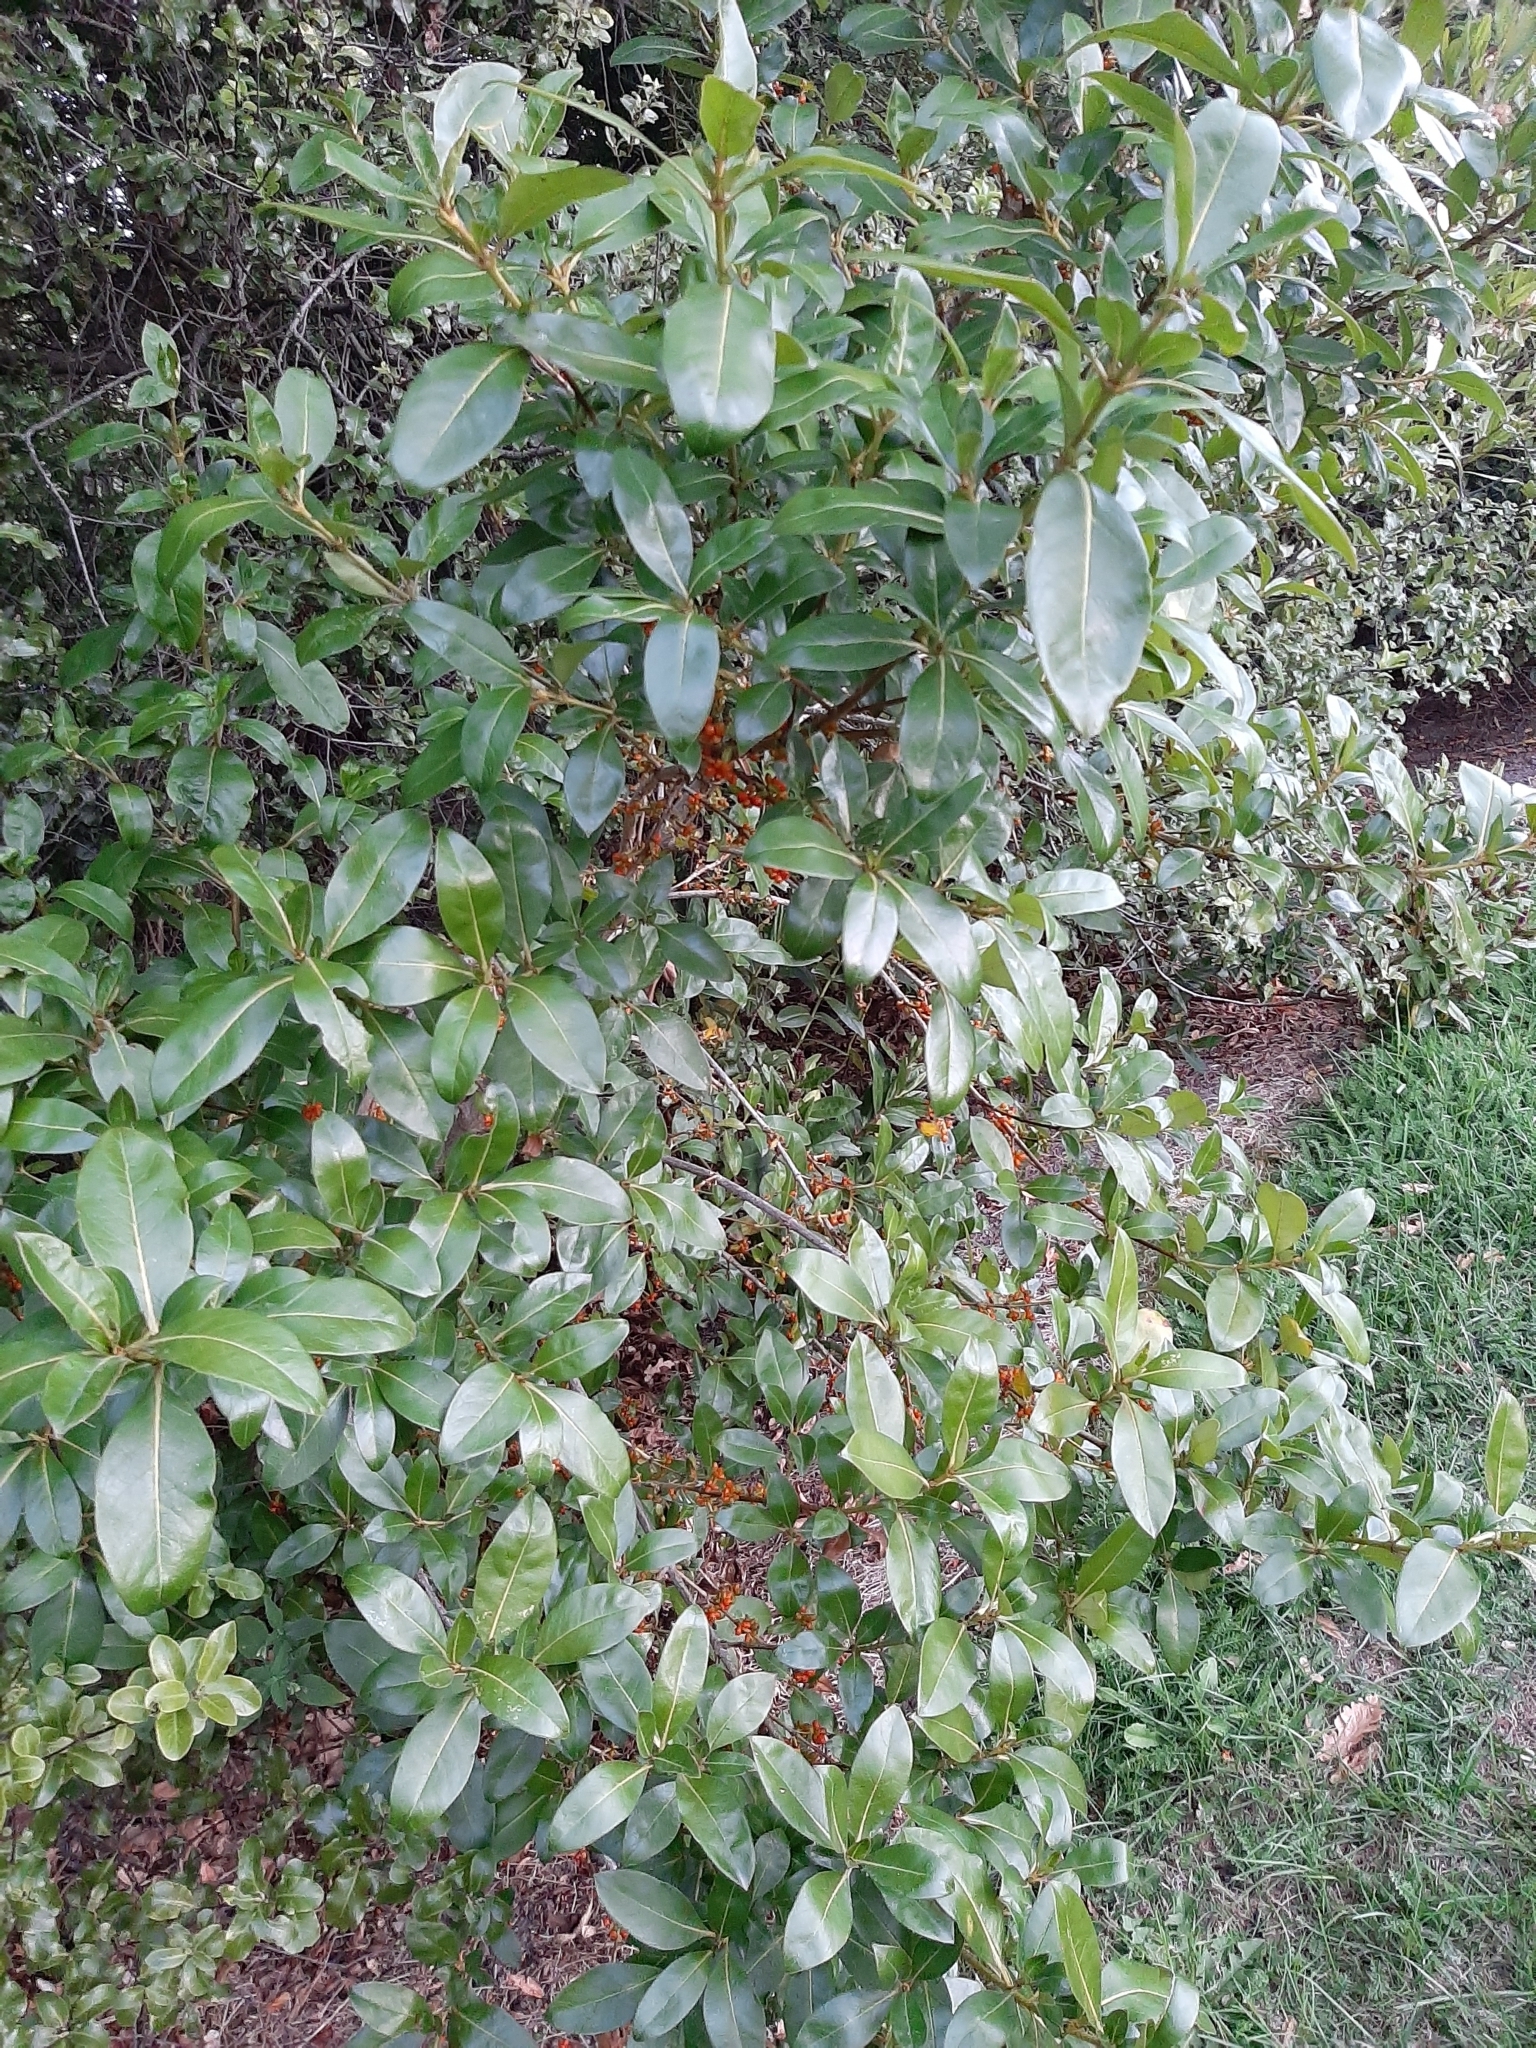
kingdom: Plantae
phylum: Tracheophyta
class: Magnoliopsida
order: Gentianales
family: Rubiaceae
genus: Coprosma
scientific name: Coprosma robusta
